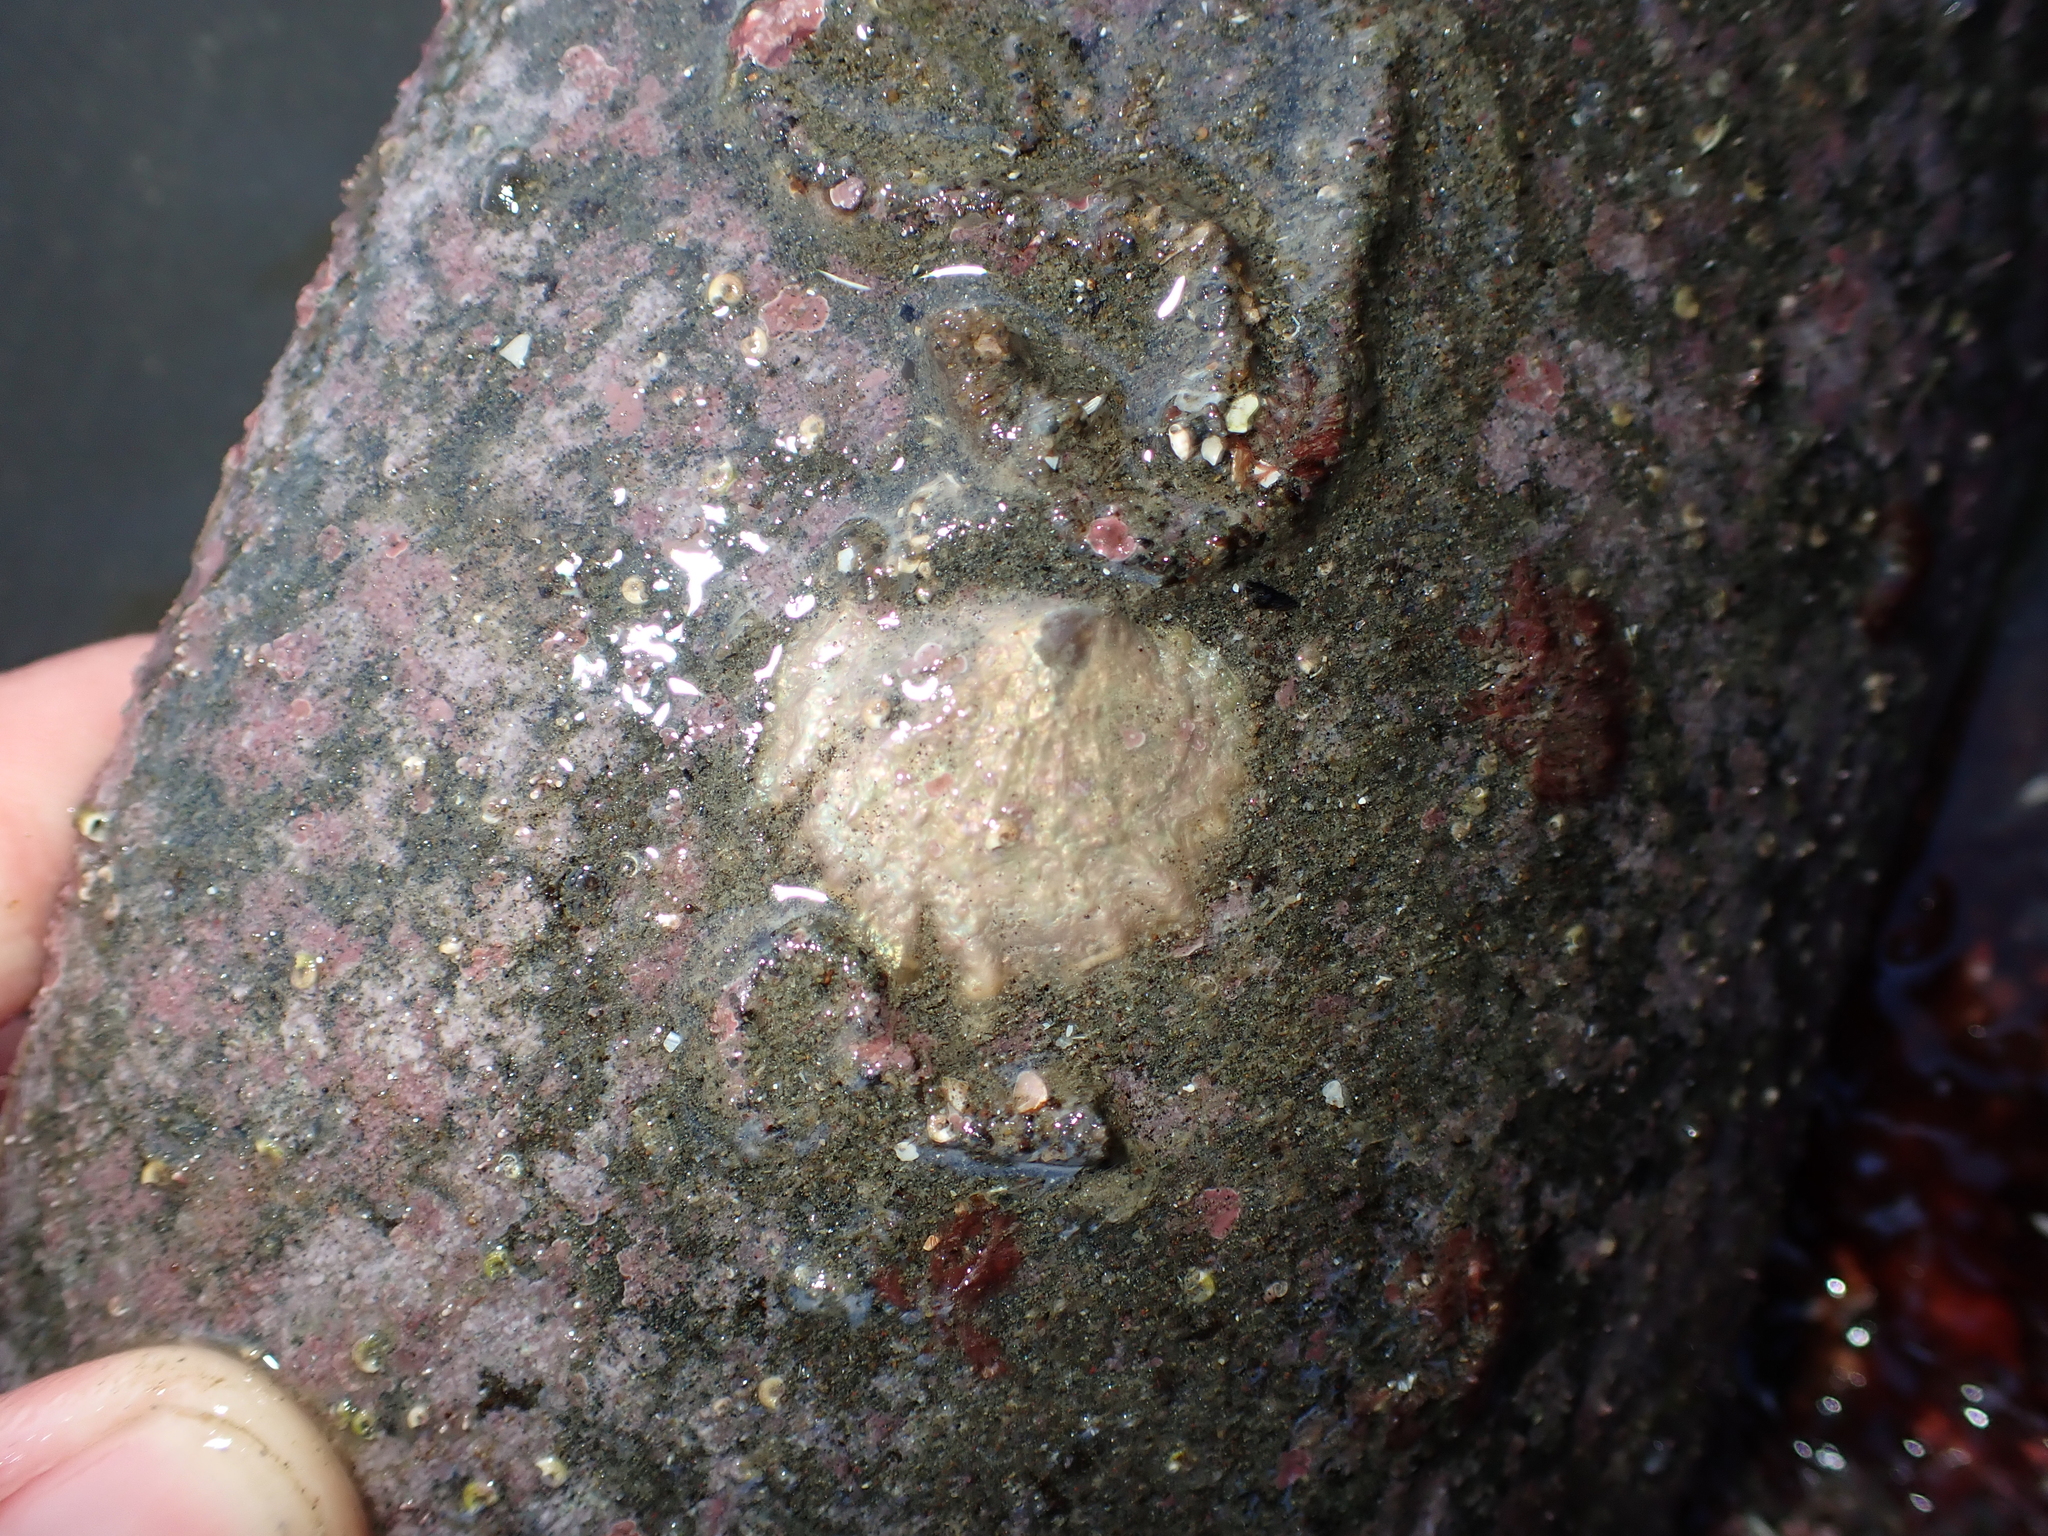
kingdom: Animalia
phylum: Mollusca
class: Bivalvia
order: Pectinida
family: Anomiidae
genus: Anomia
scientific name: Anomia trigonopsis
